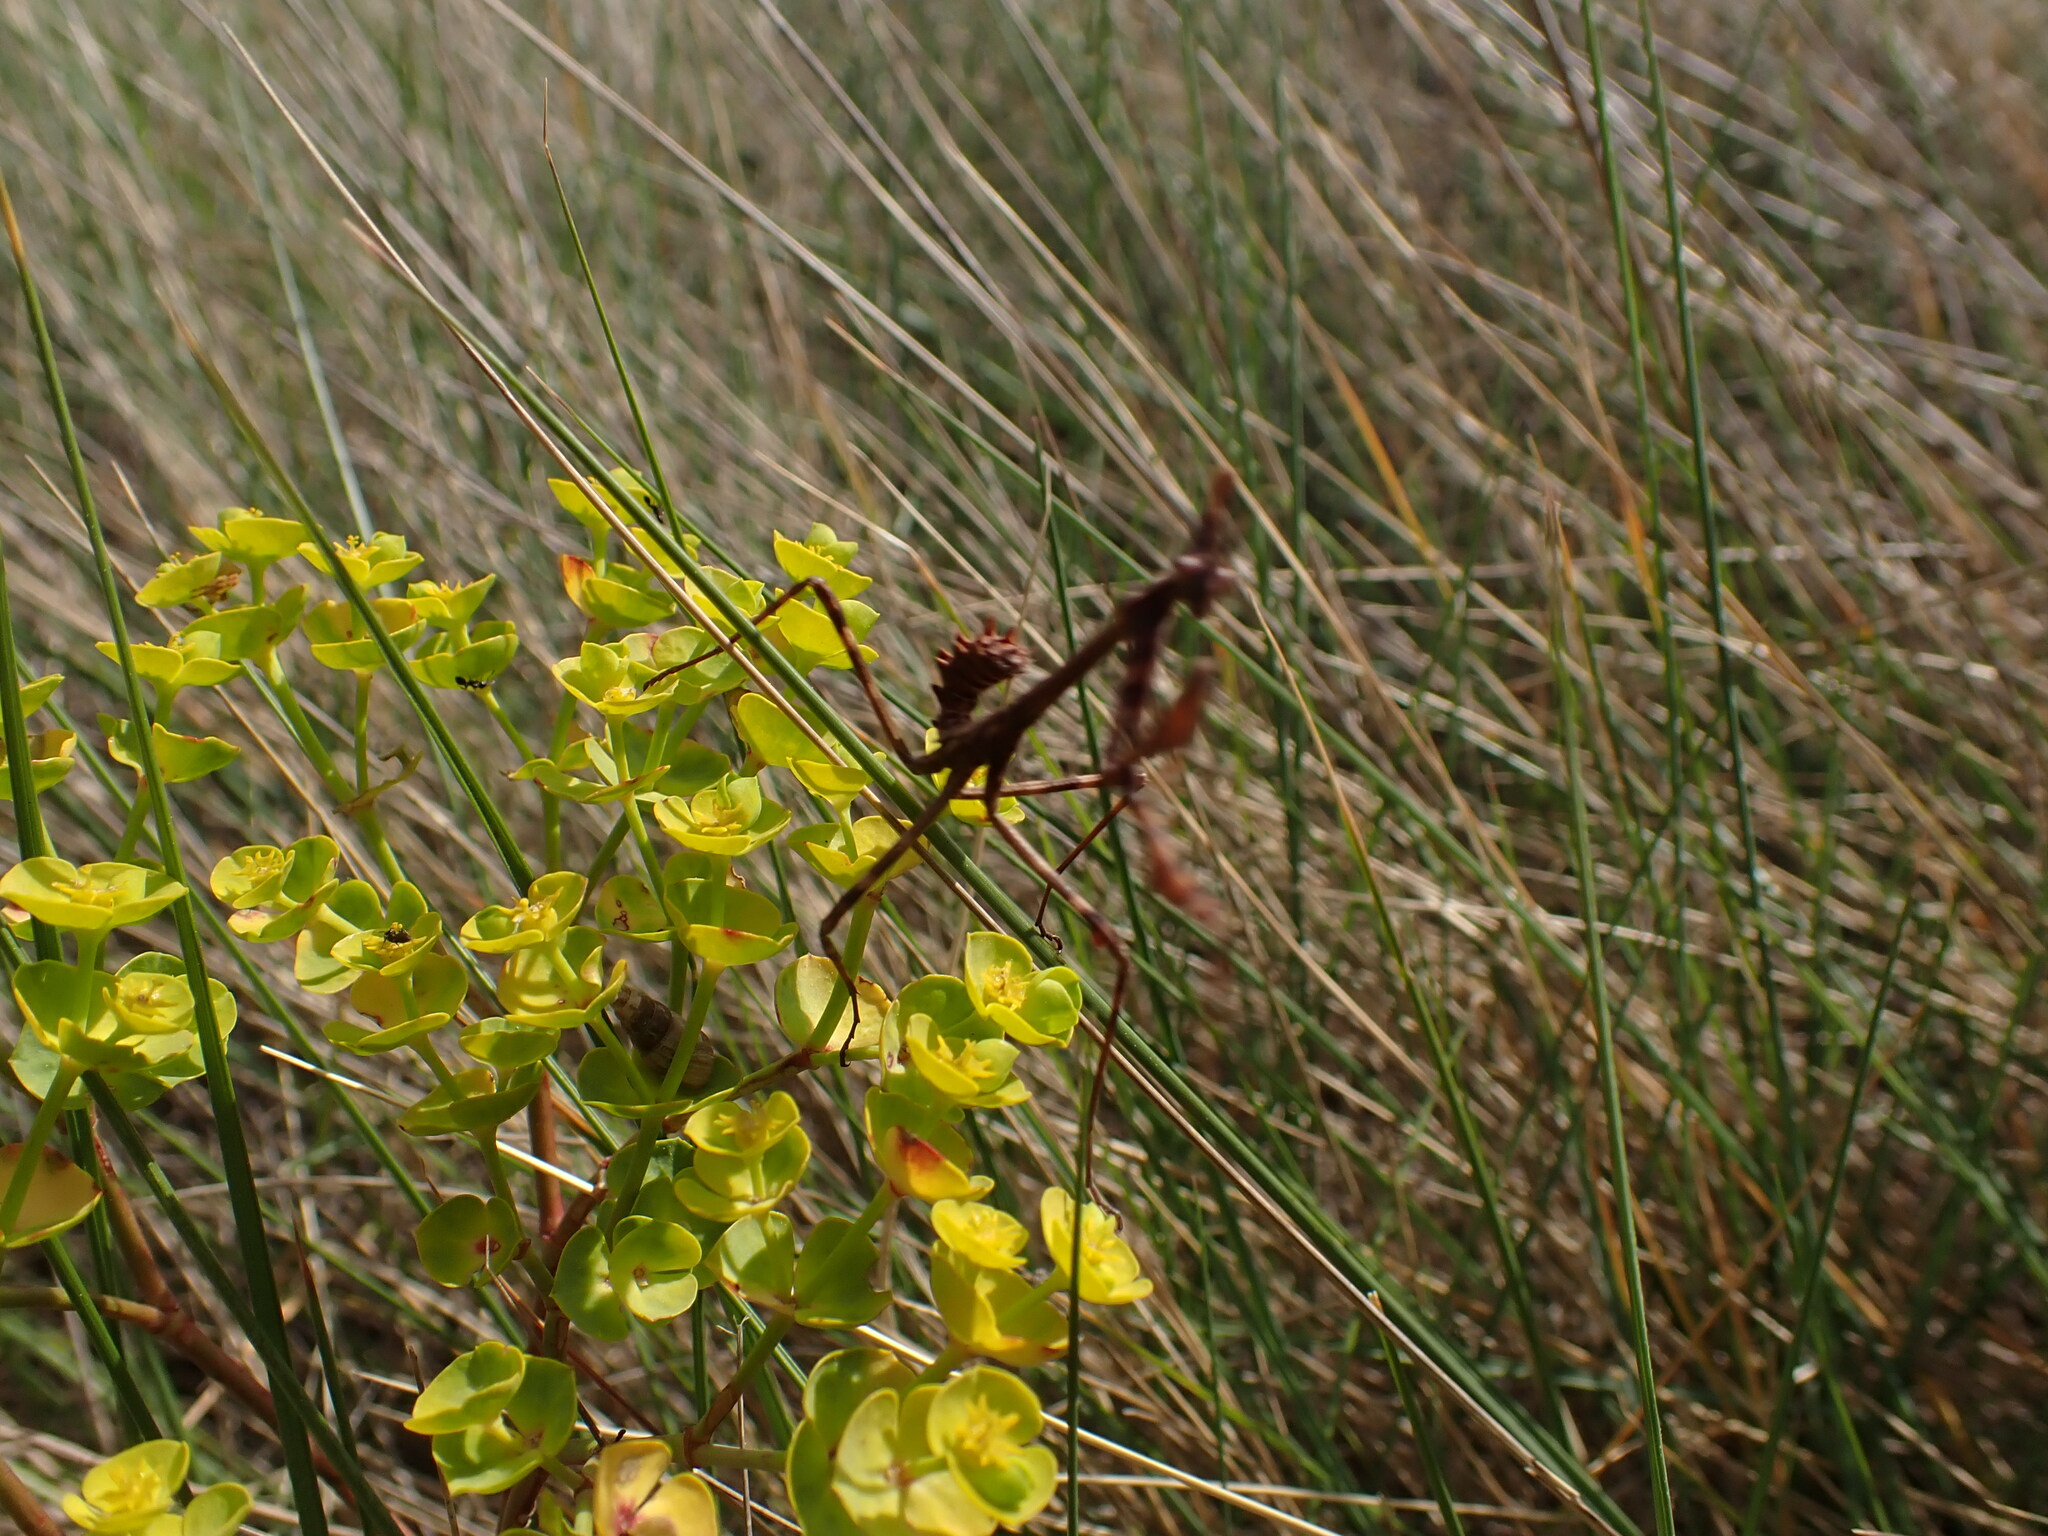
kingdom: Animalia
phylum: Arthropoda
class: Insecta
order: Mantodea
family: Empusidae
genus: Empusa
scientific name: Empusa pennata
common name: Conehead mantis
